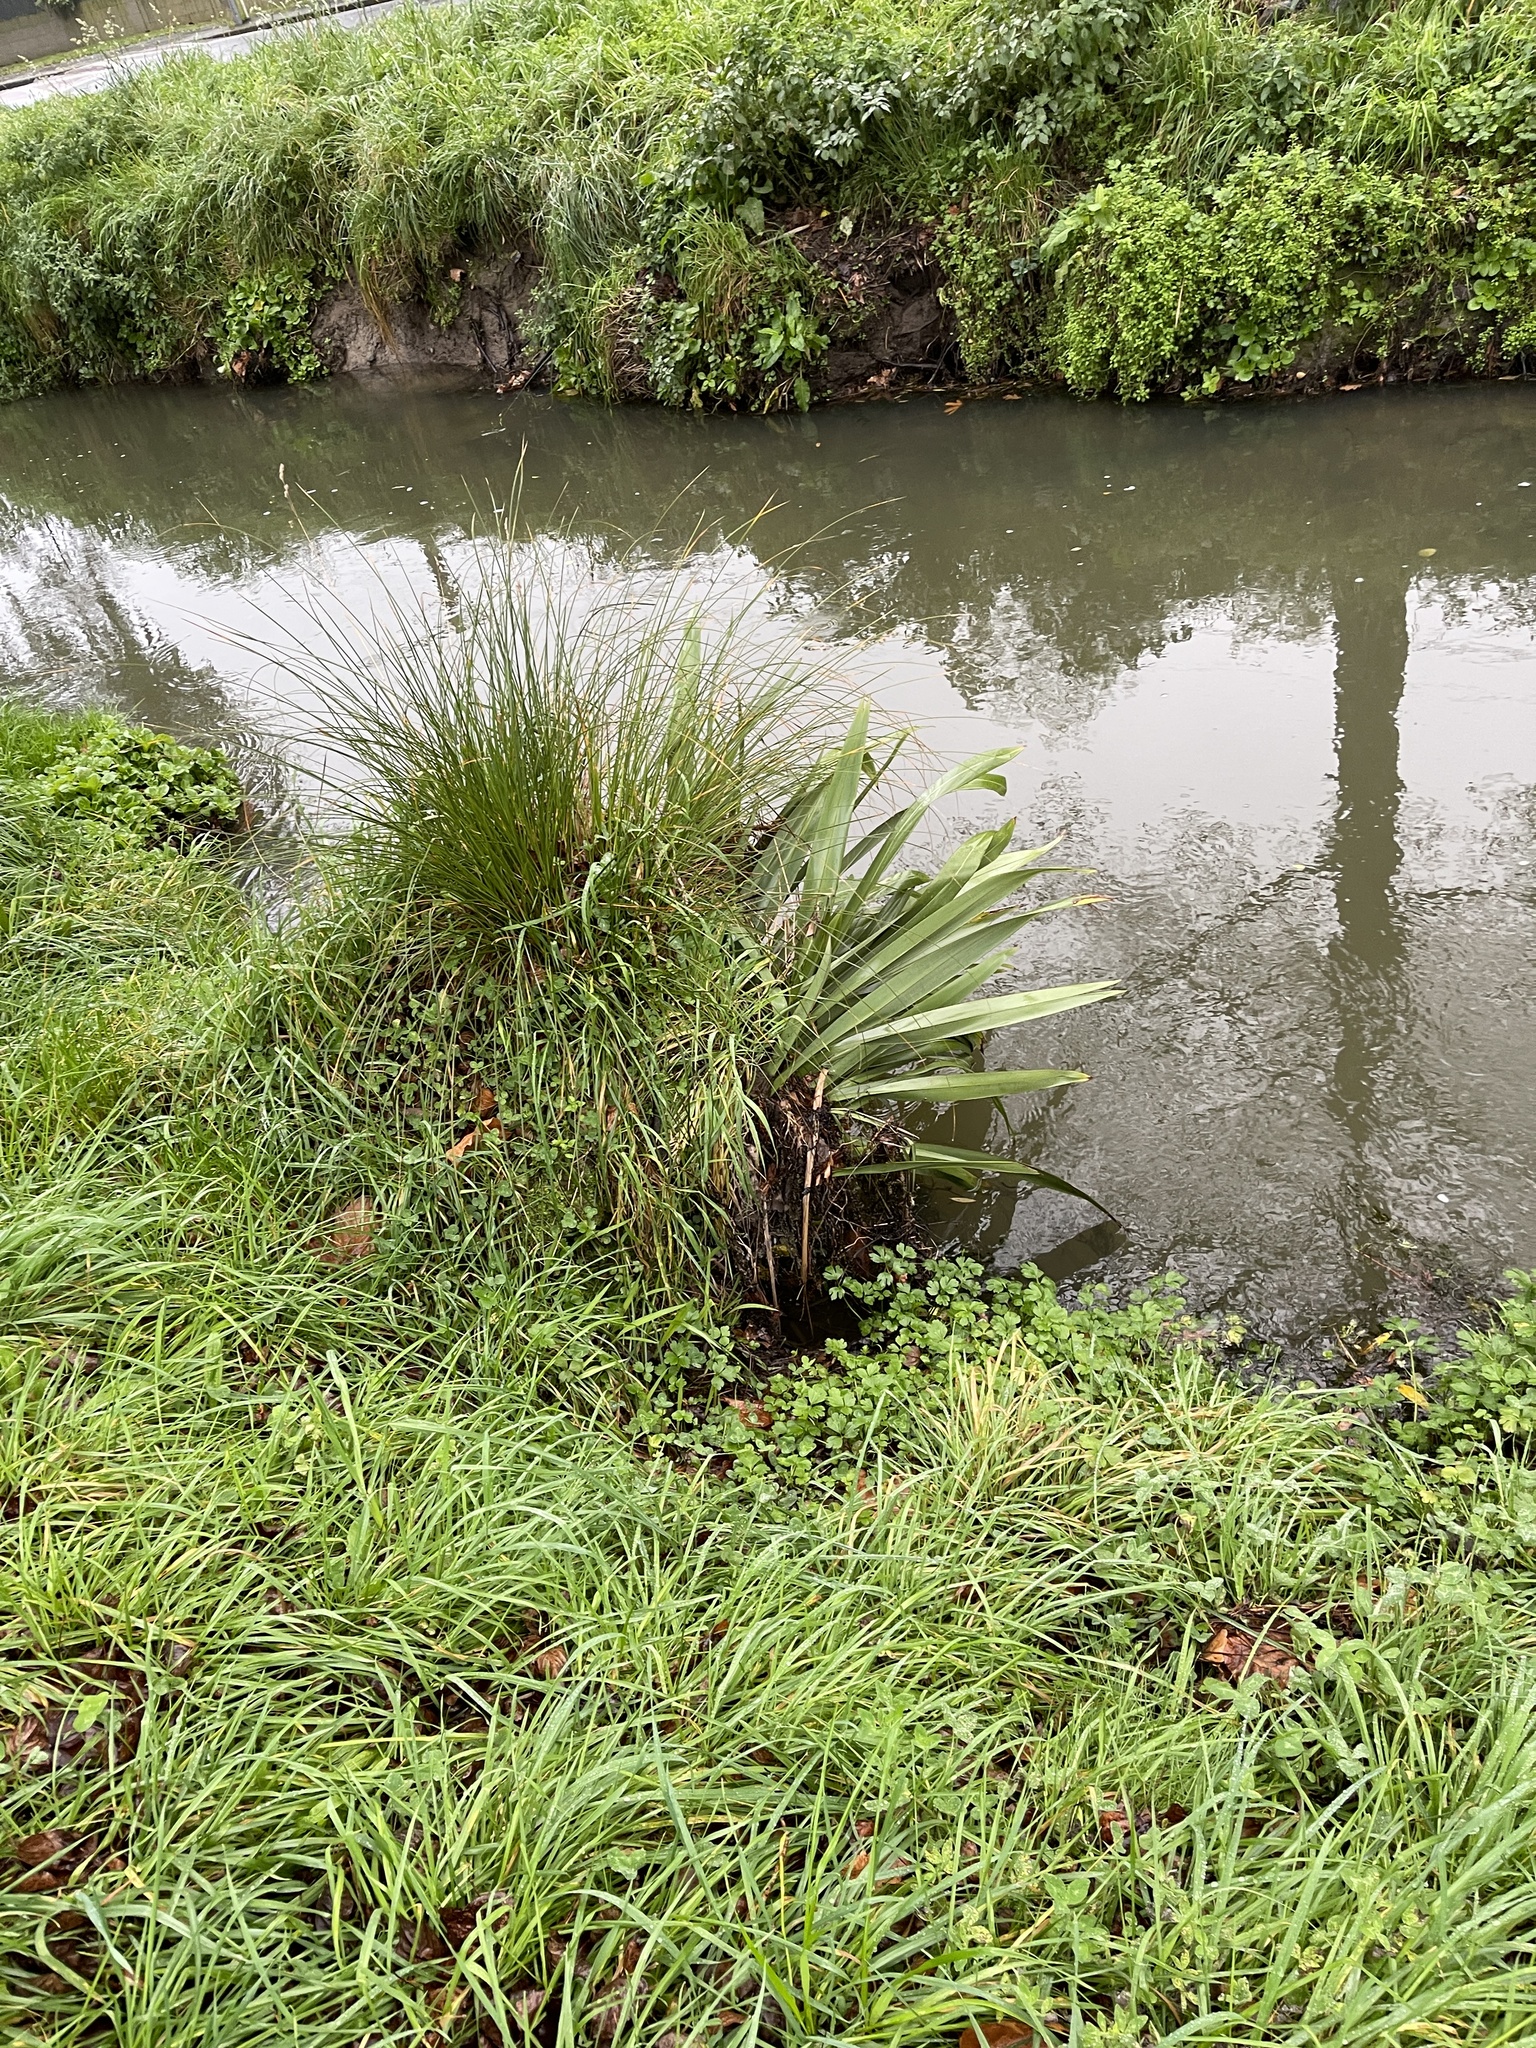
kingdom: Plantae
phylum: Tracheophyta
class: Liliopsida
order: Poales
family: Cyperaceae
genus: Carex
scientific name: Carex secta
